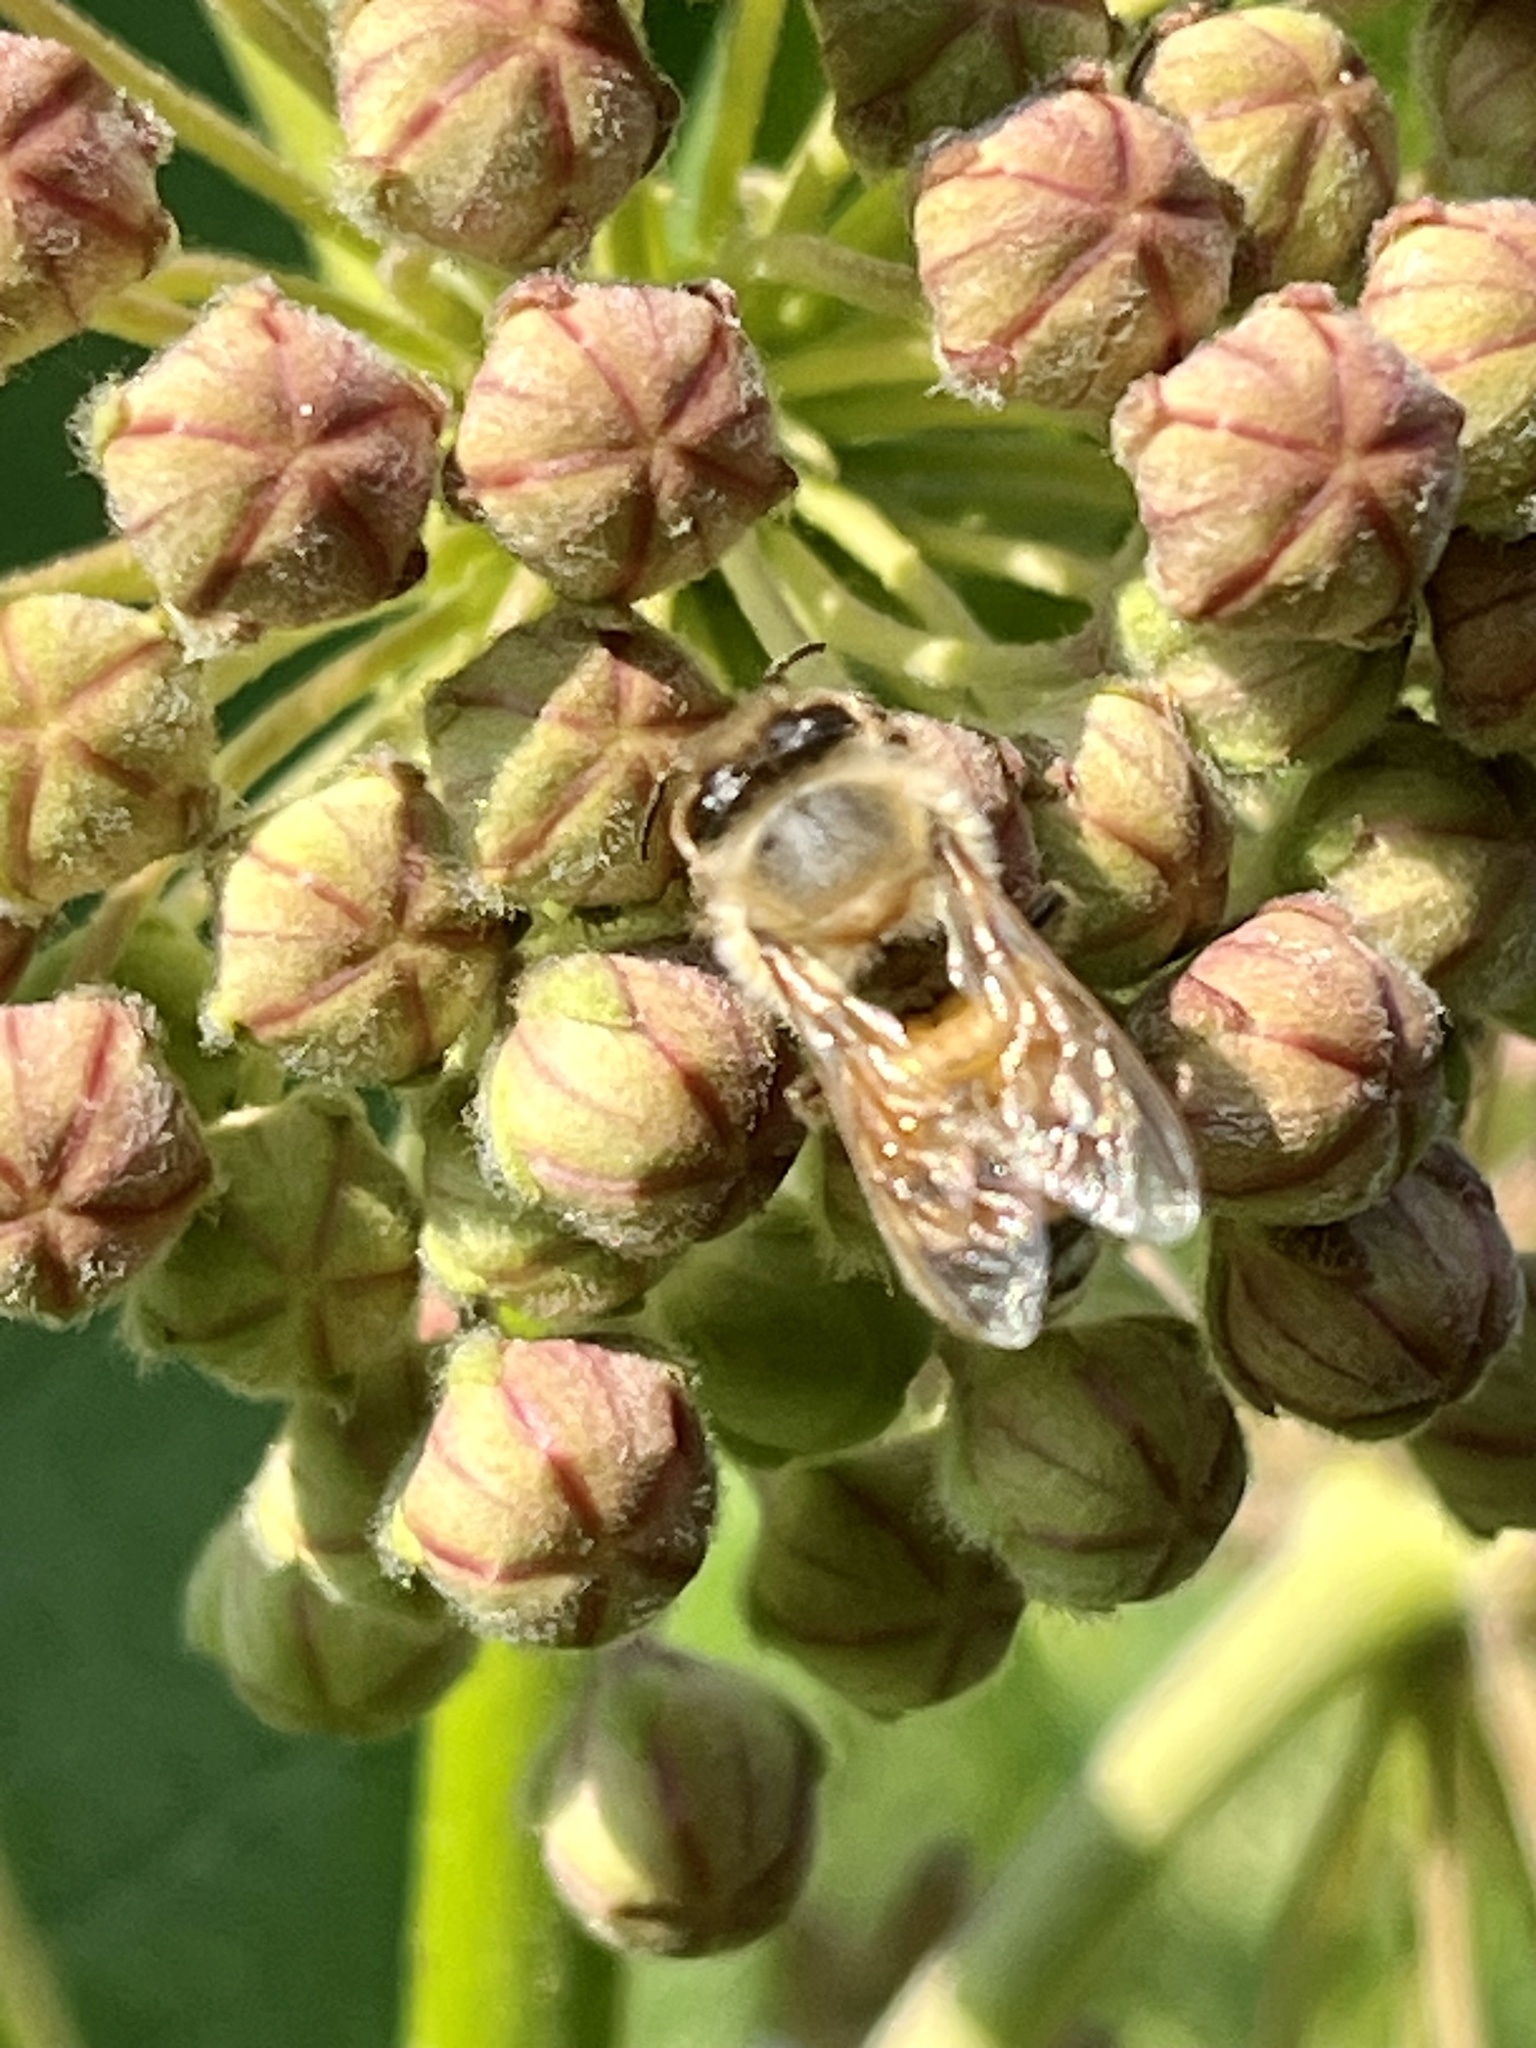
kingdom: Animalia
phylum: Arthropoda
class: Insecta
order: Hymenoptera
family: Apidae
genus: Apis
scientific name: Apis mellifera
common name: Honey bee
